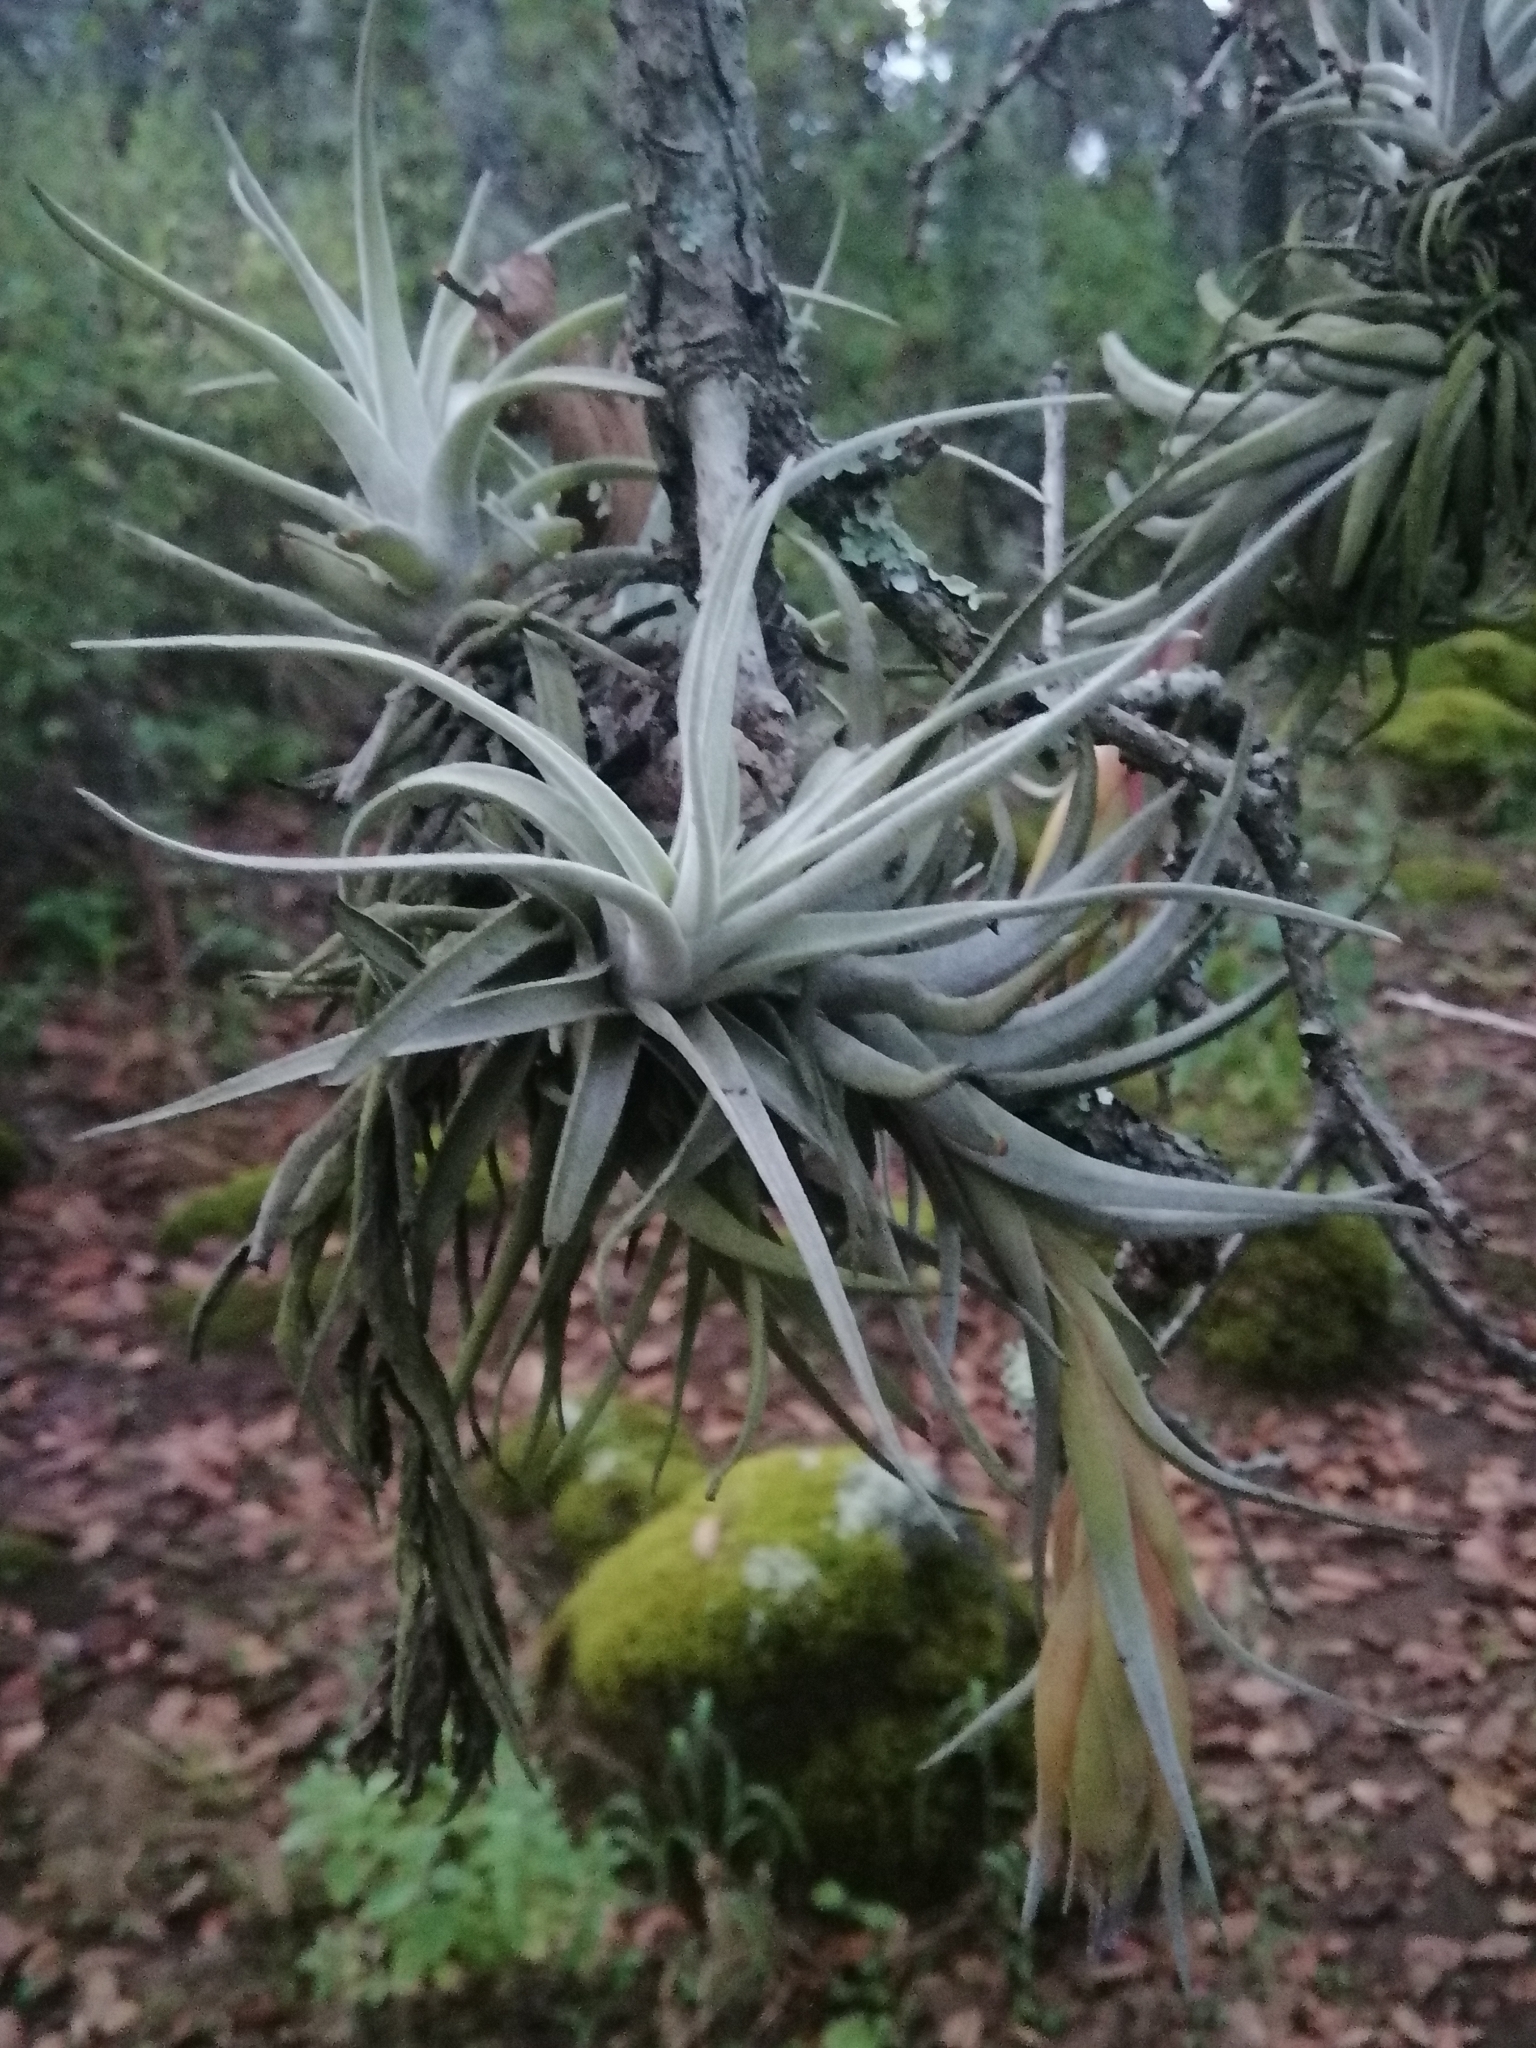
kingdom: Plantae
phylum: Tracheophyta
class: Liliopsida
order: Poales
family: Bromeliaceae
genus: Tillandsia
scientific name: Tillandsia erubescens
